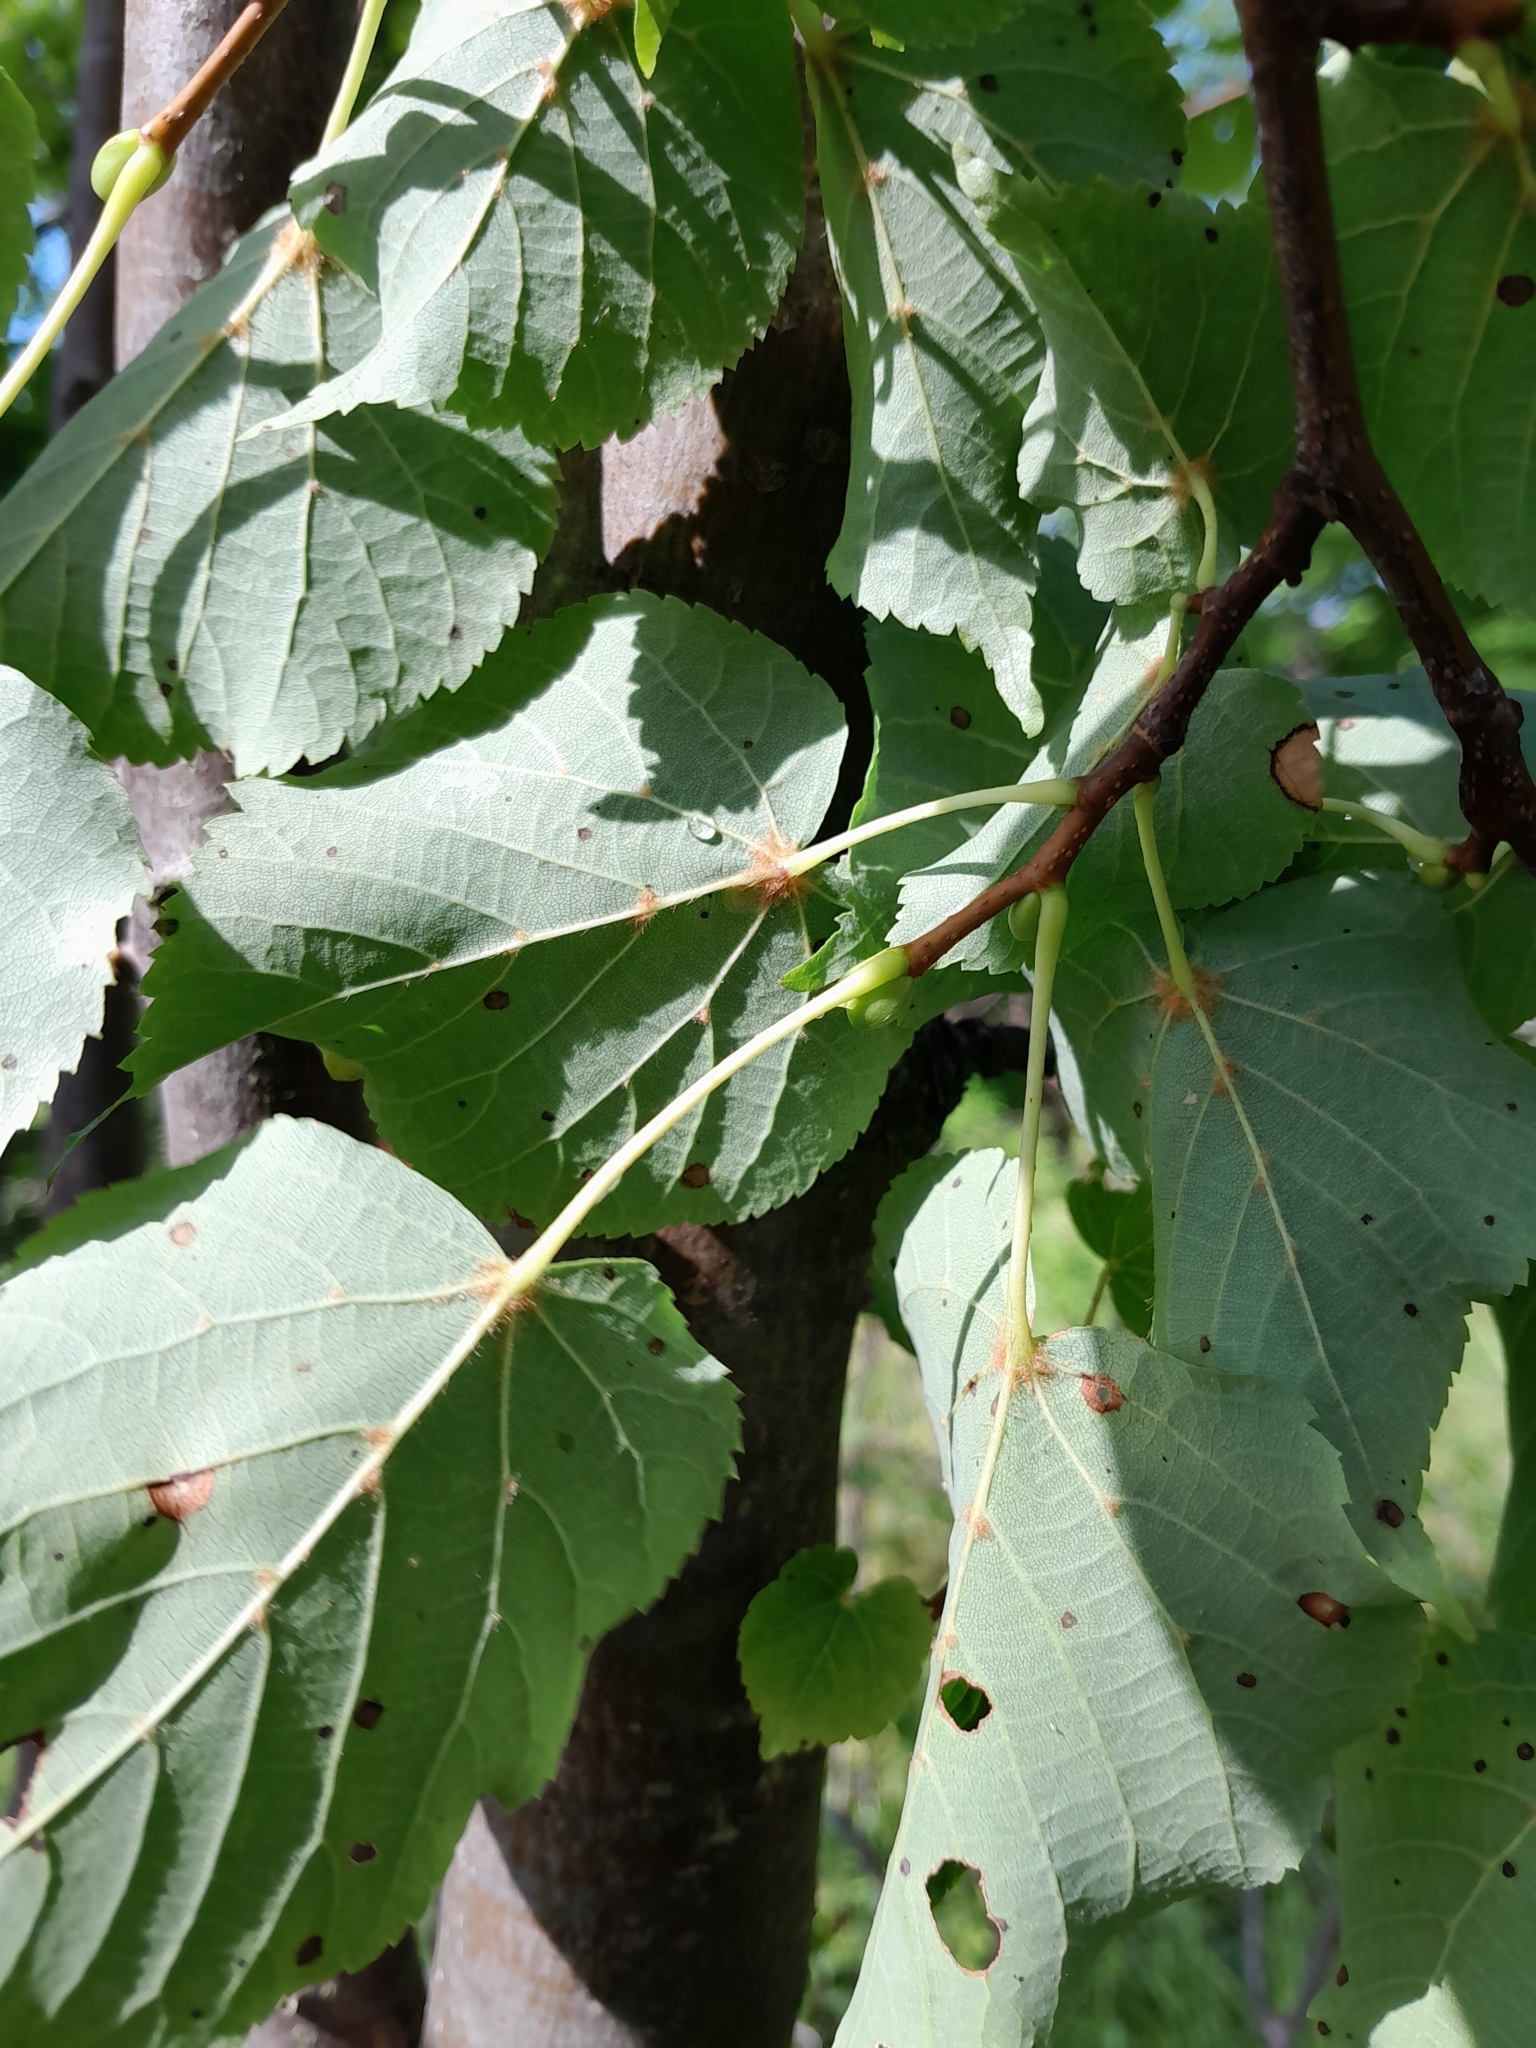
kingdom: Plantae
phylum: Tracheophyta
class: Magnoliopsida
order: Malvales
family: Malvaceae
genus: Tilia
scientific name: Tilia cordata
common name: Small-leaved lime
